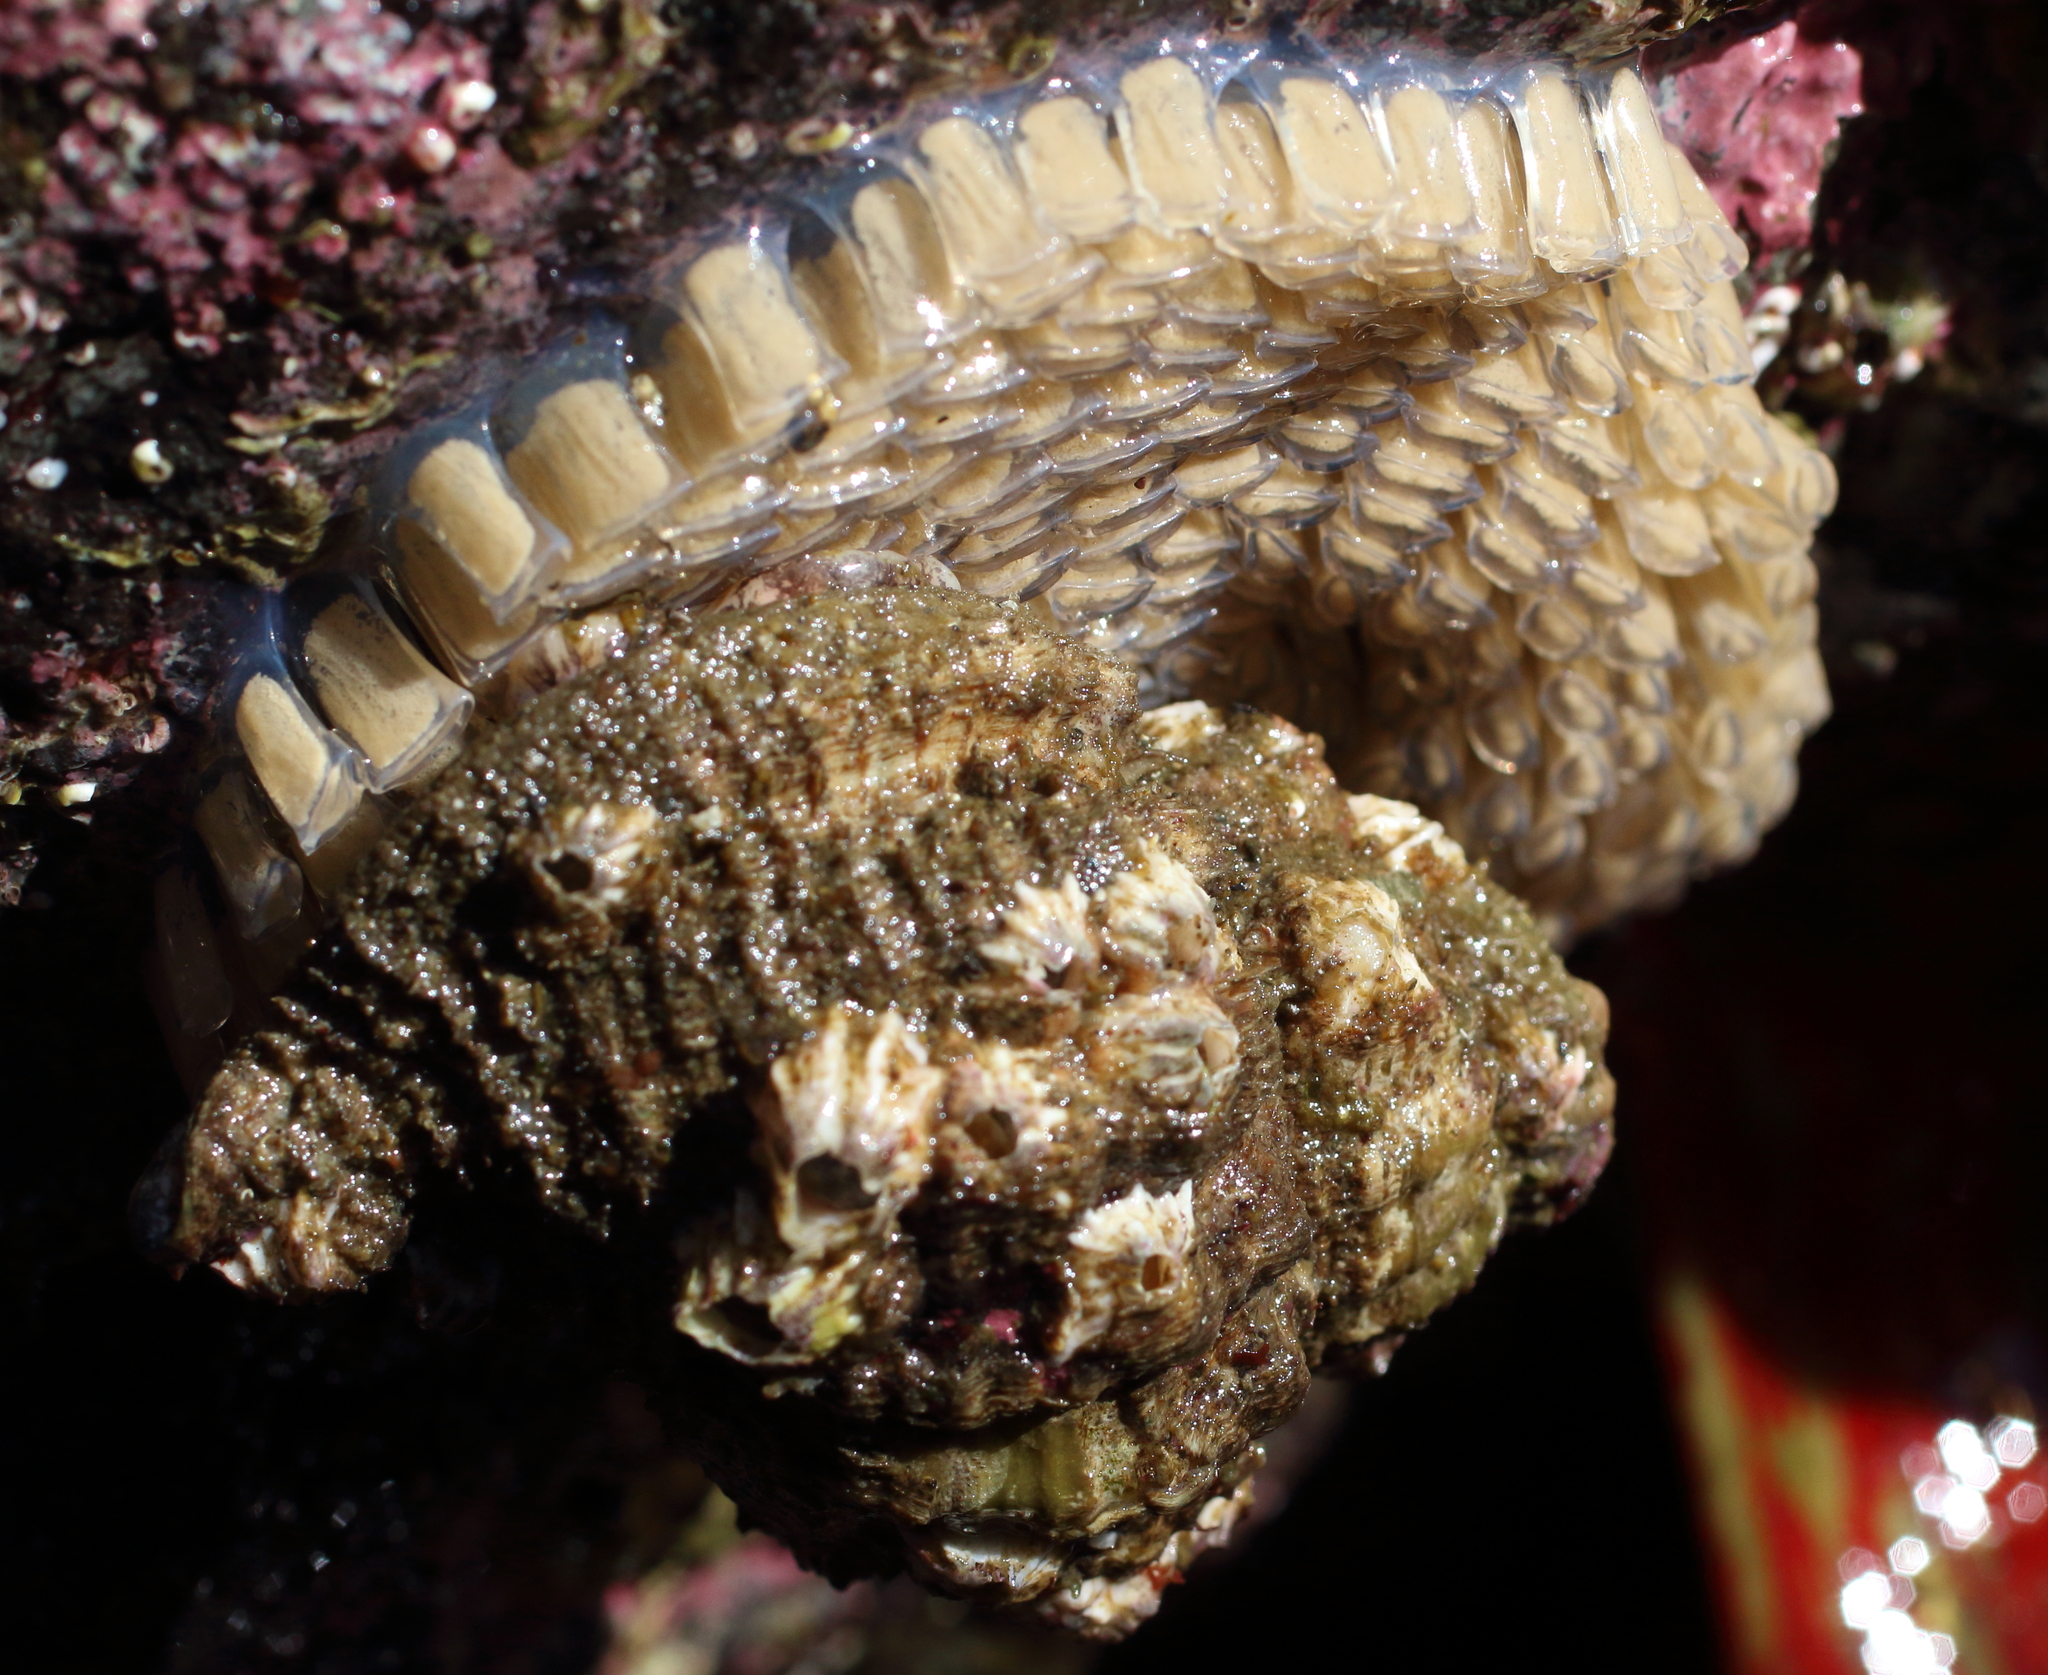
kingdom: Animalia
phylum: Mollusca
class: Gastropoda
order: Littorinimorpha
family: Cymatiidae
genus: Fusitriton
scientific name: Fusitriton oregonensis
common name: Oregon hairy triton
